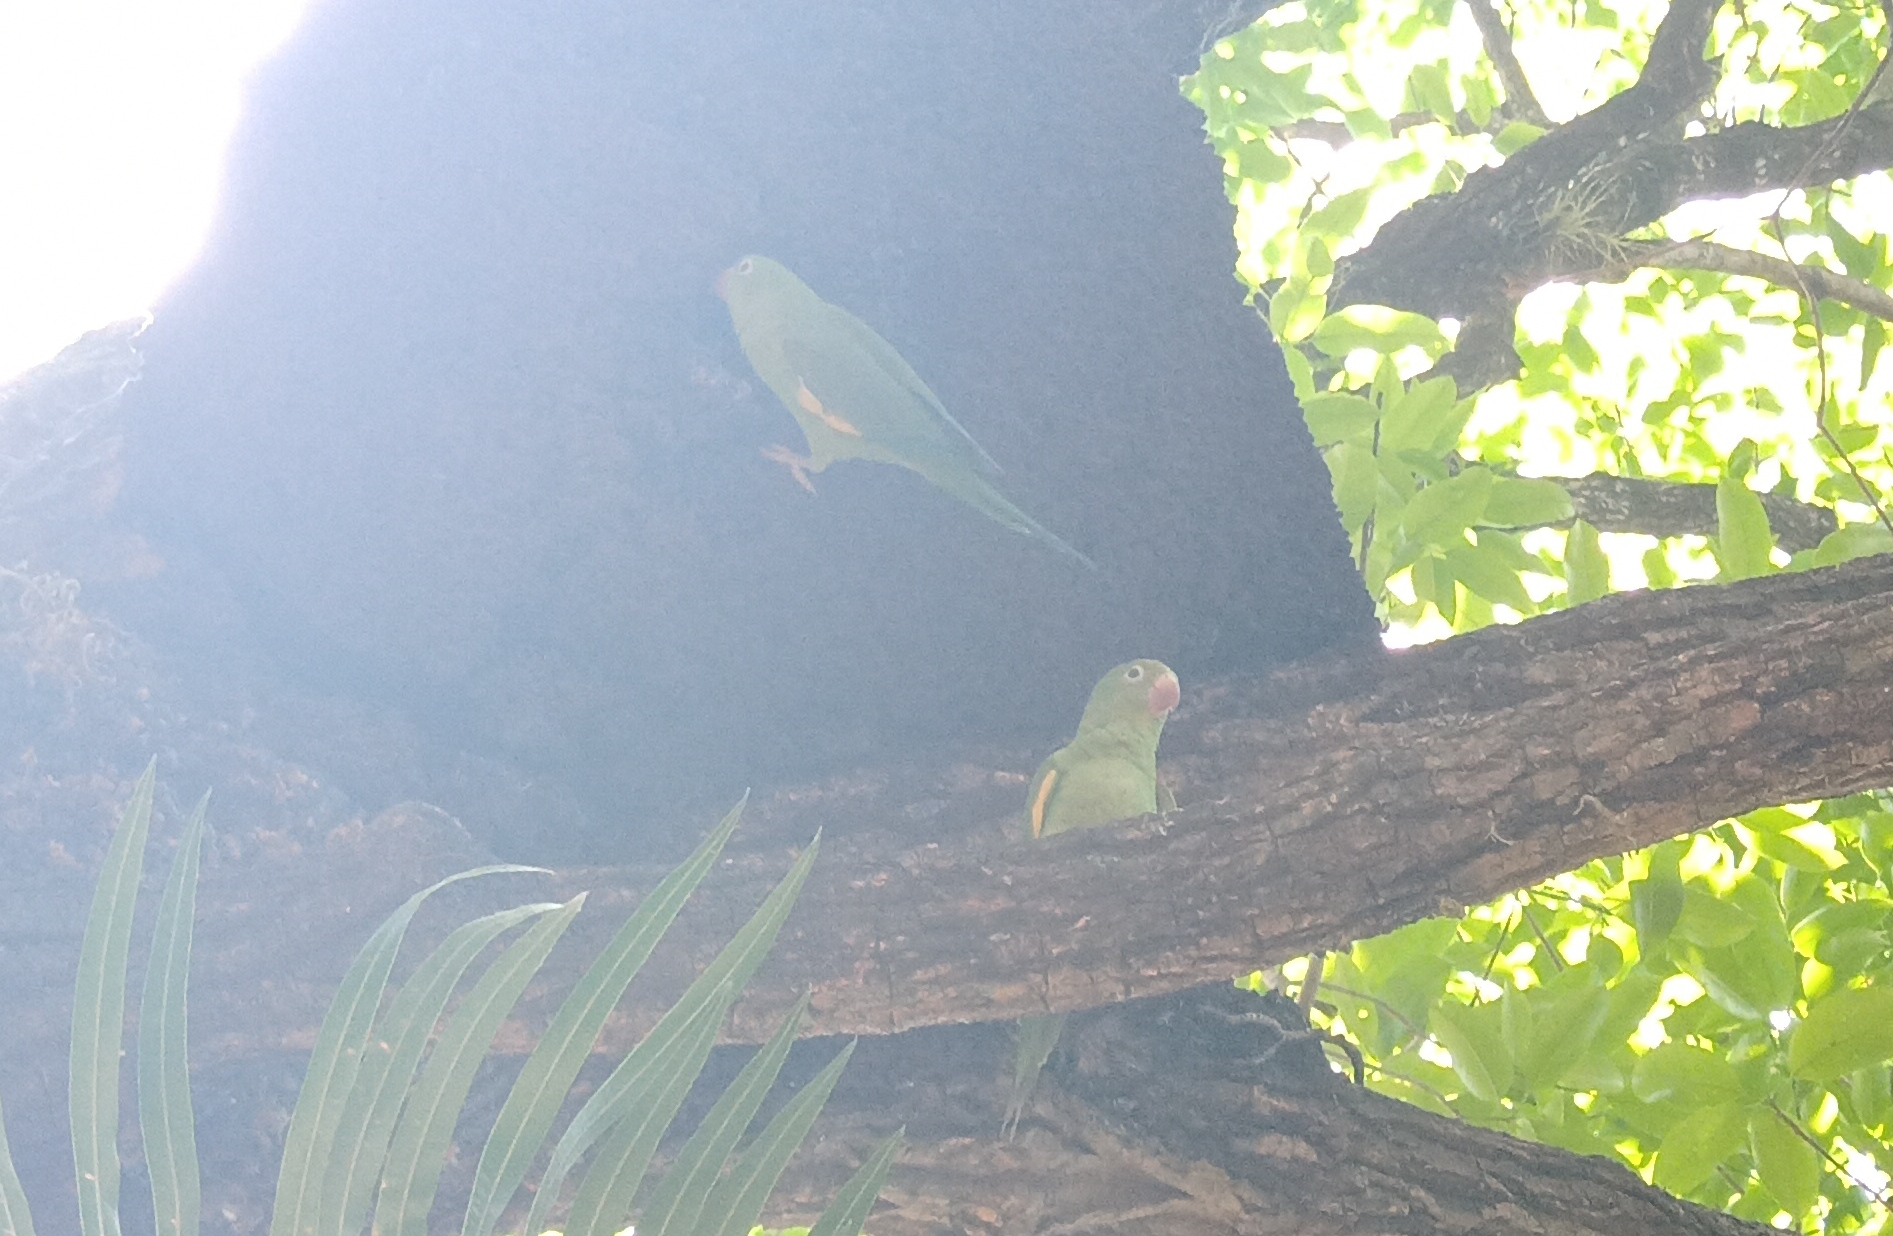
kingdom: Animalia
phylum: Chordata
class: Aves
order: Psittaciformes
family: Psittacidae
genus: Brotogeris
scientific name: Brotogeris chiriri
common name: Yellow-chevroned parakeet
